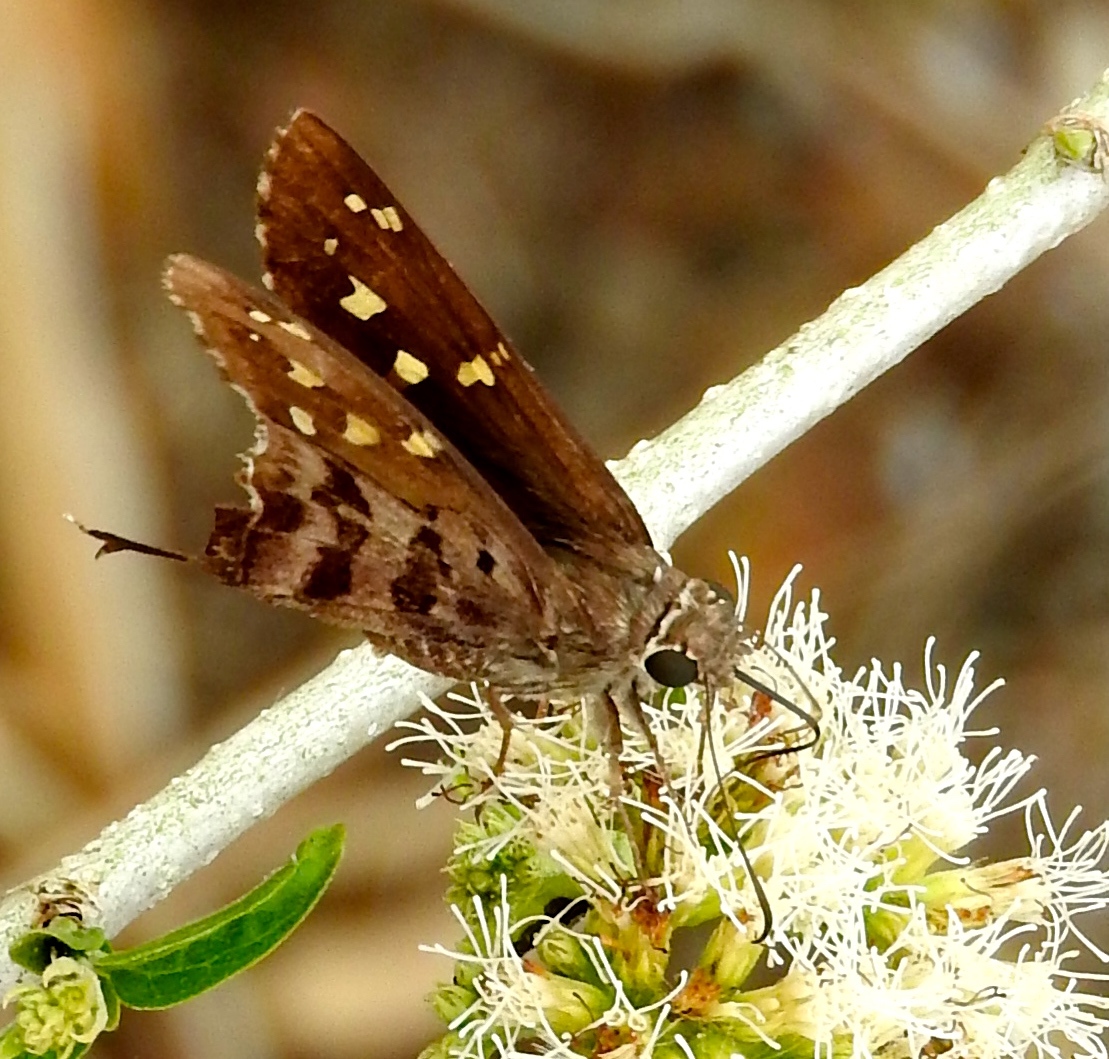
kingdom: Animalia
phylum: Arthropoda
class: Insecta
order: Lepidoptera
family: Hesperiidae
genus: Thorybes
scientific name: Thorybes
